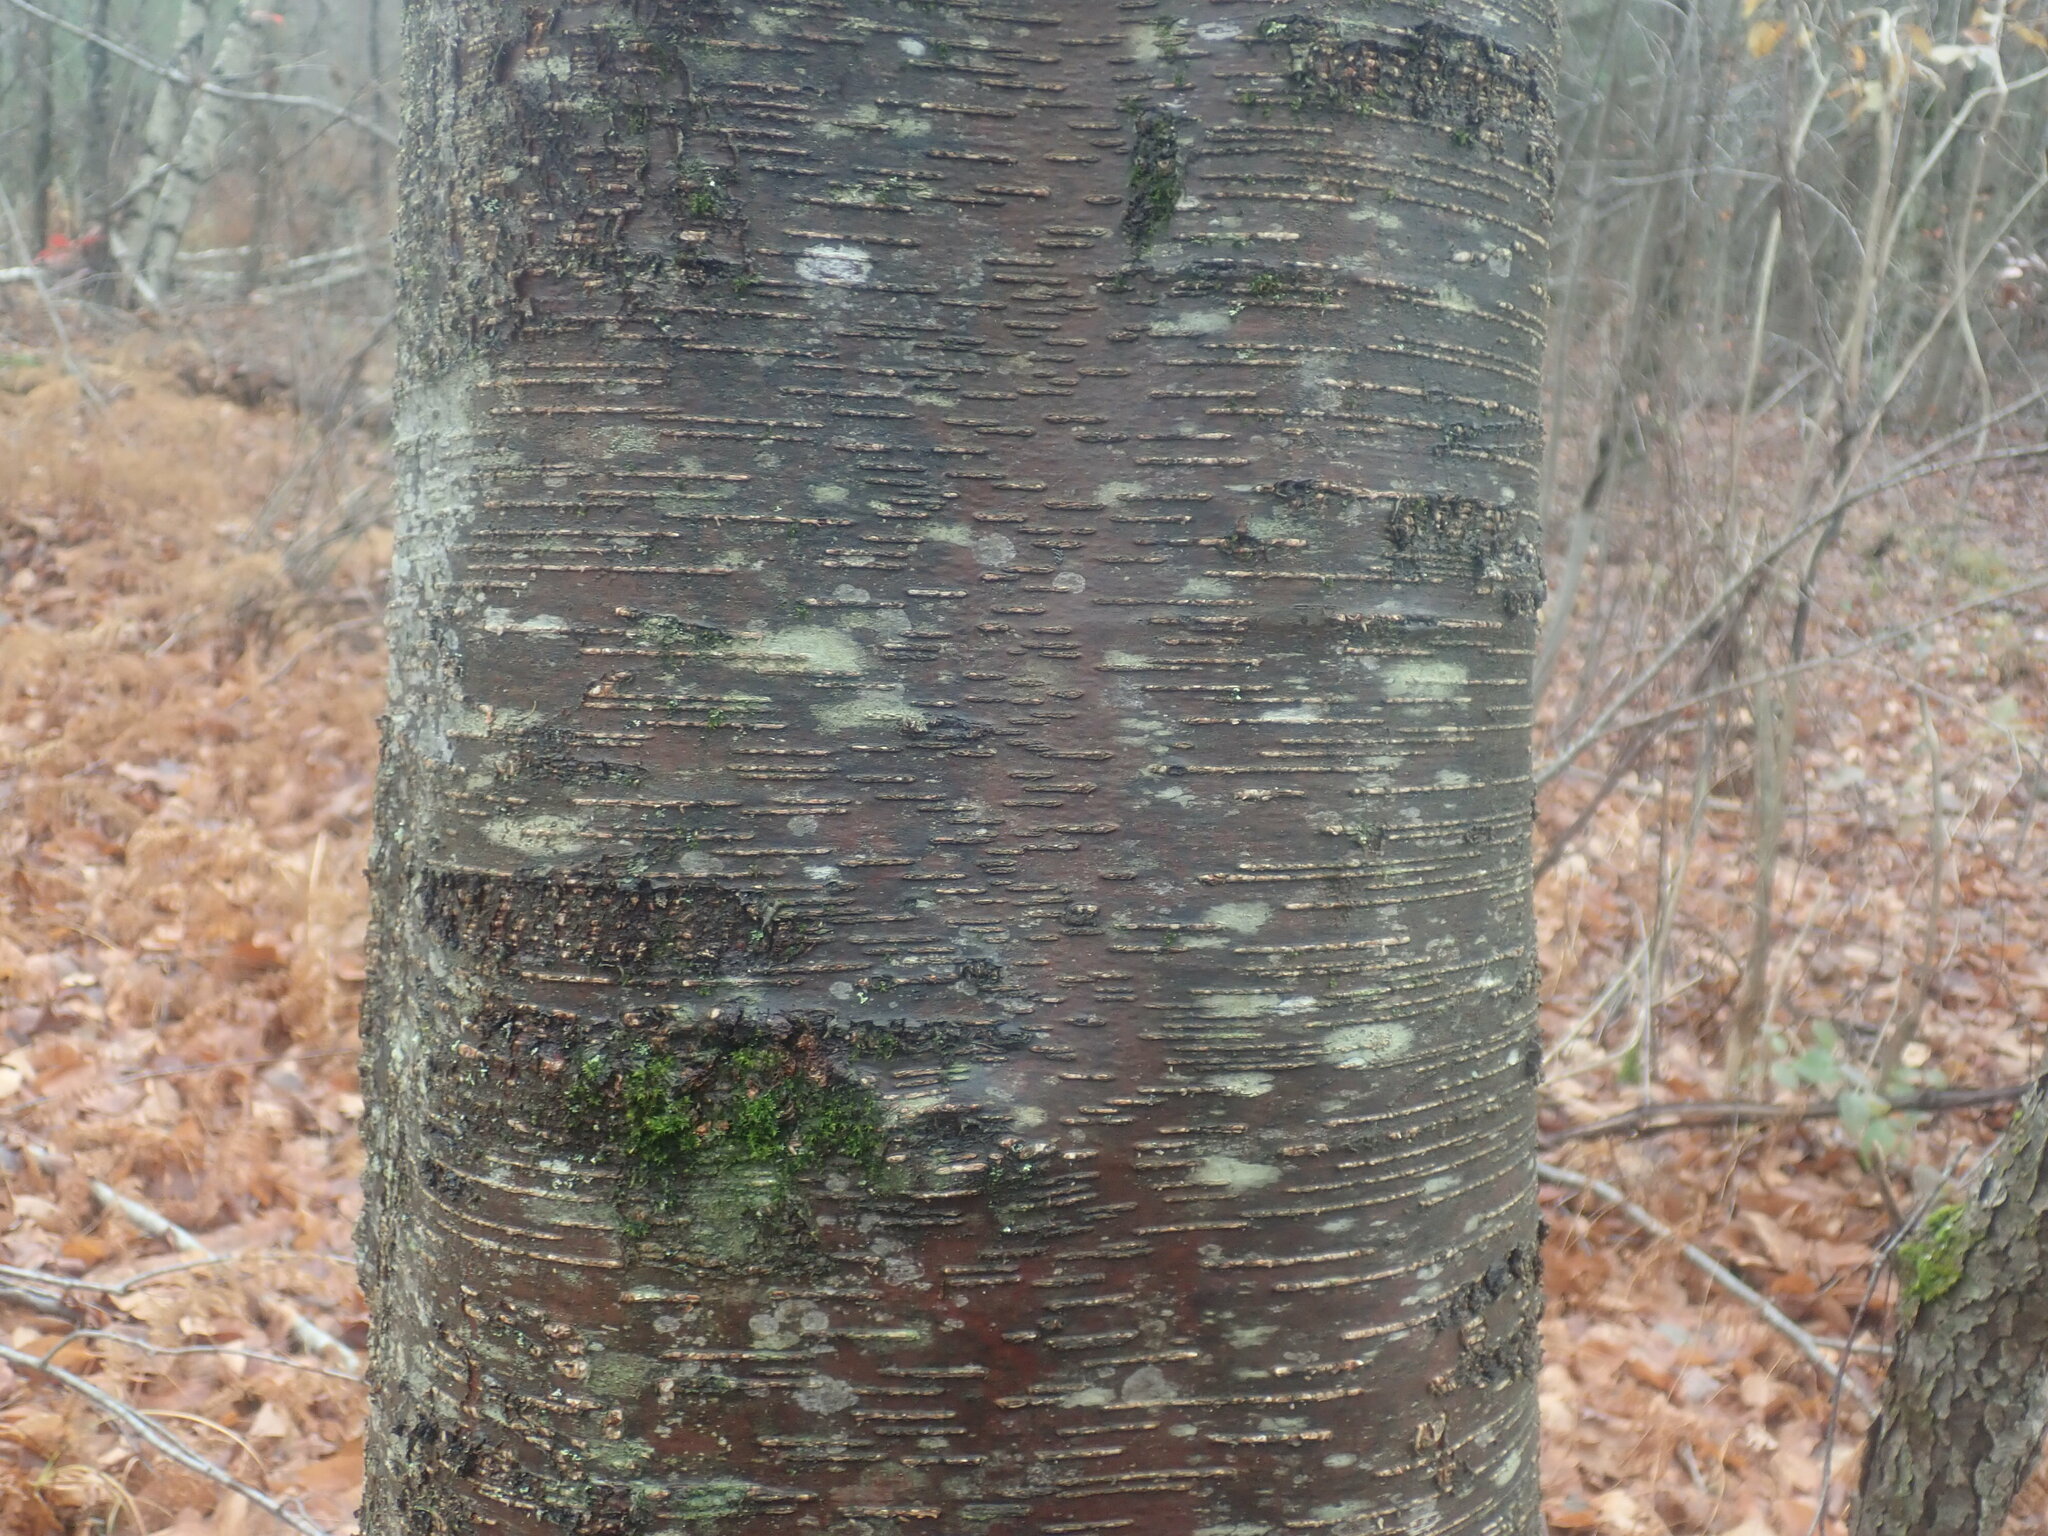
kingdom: Plantae
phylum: Tracheophyta
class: Magnoliopsida
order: Fagales
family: Betulaceae
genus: Betula
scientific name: Betula lenta
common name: Black birch
